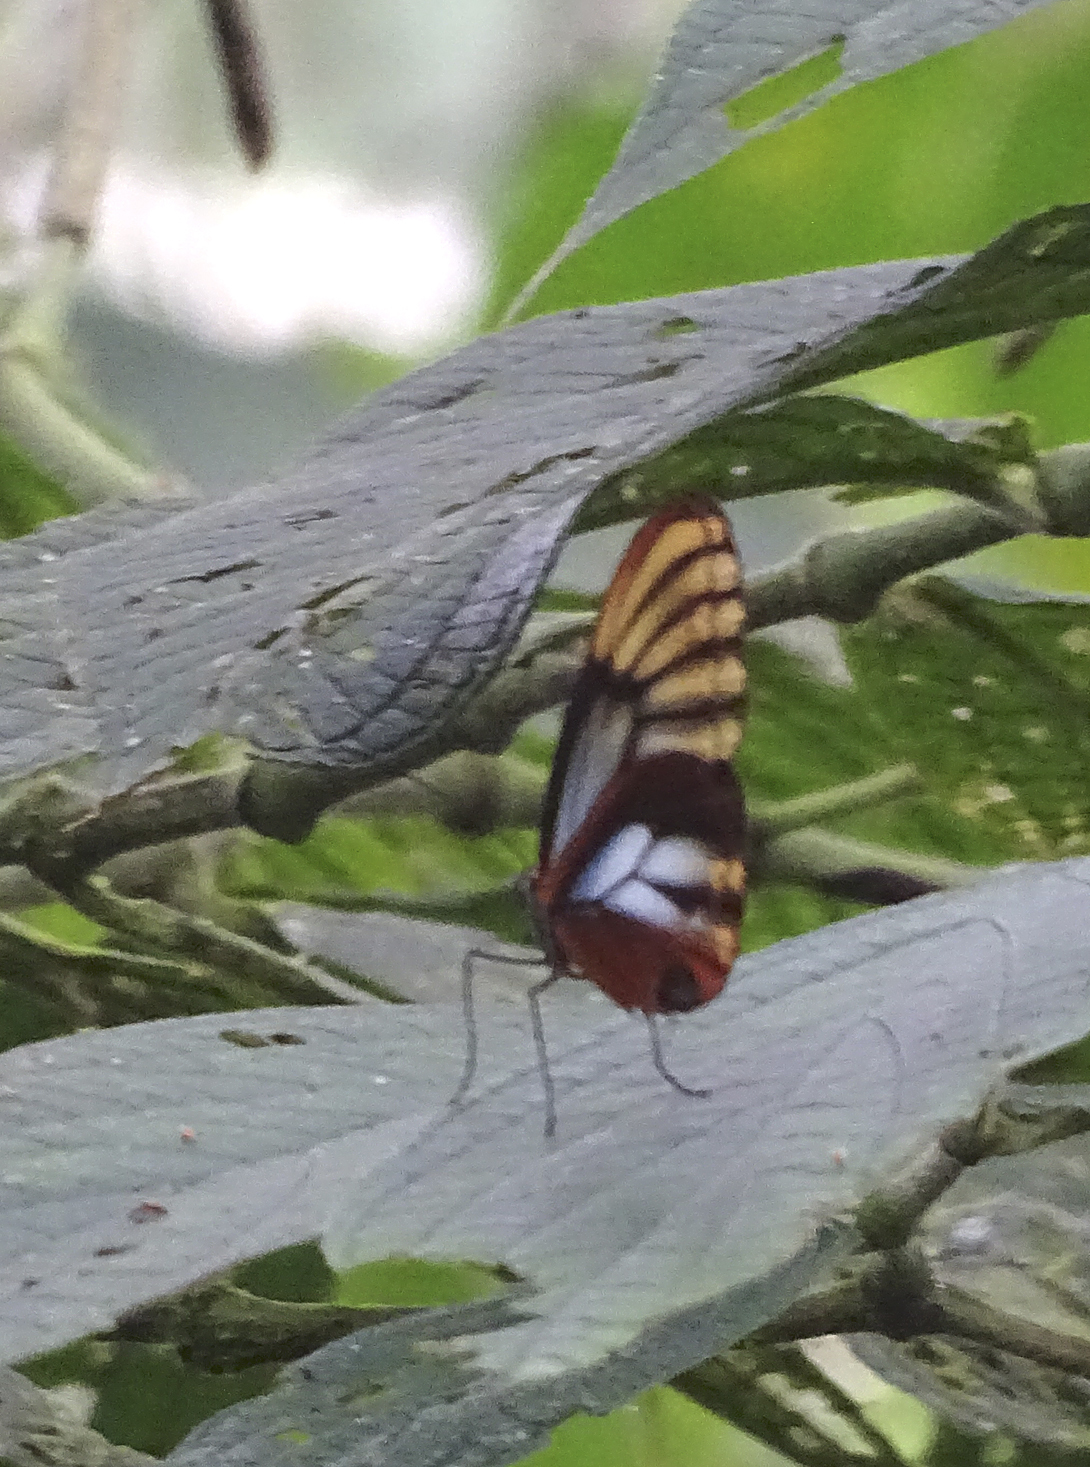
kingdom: Animalia
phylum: Arthropoda
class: Insecta
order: Lepidoptera
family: Nymphalidae
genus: Godyris
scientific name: Godyris duillia
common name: Dazzling glasswing
